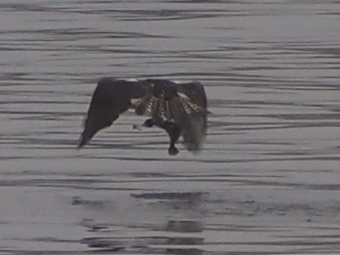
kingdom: Animalia
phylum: Chordata
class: Aves
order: Accipitriformes
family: Pandionidae
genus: Pandion
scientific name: Pandion haliaetus
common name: Osprey
